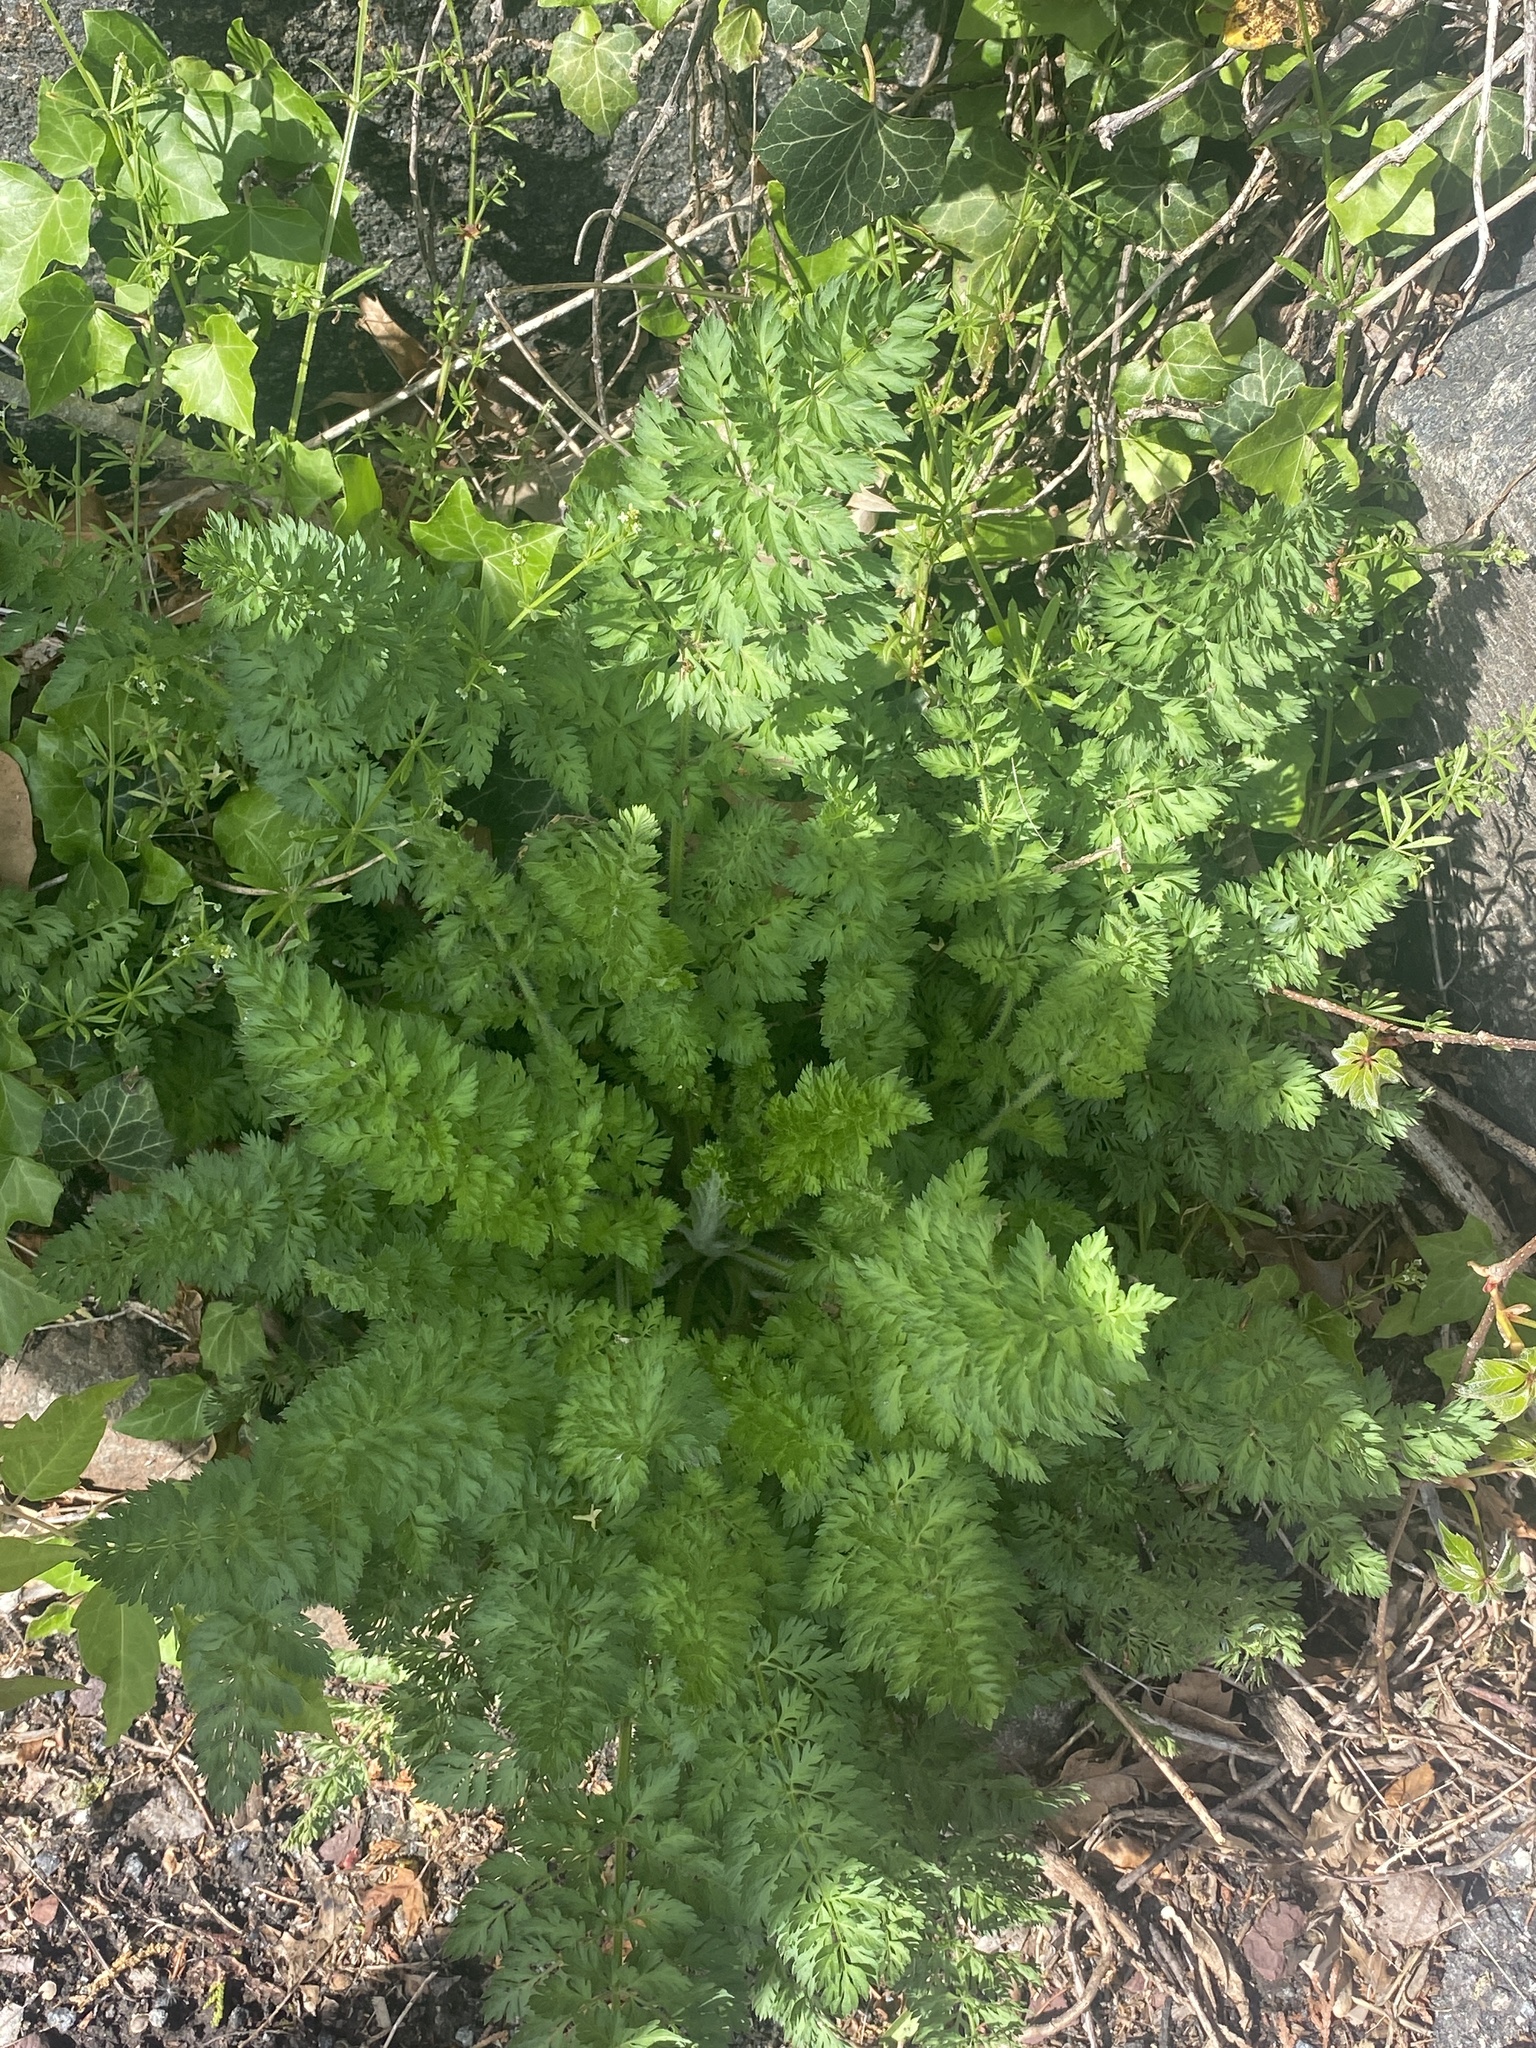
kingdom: Plantae
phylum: Tracheophyta
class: Magnoliopsida
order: Apiales
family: Apiaceae
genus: Daucus
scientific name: Daucus carota
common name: Wild carrot
